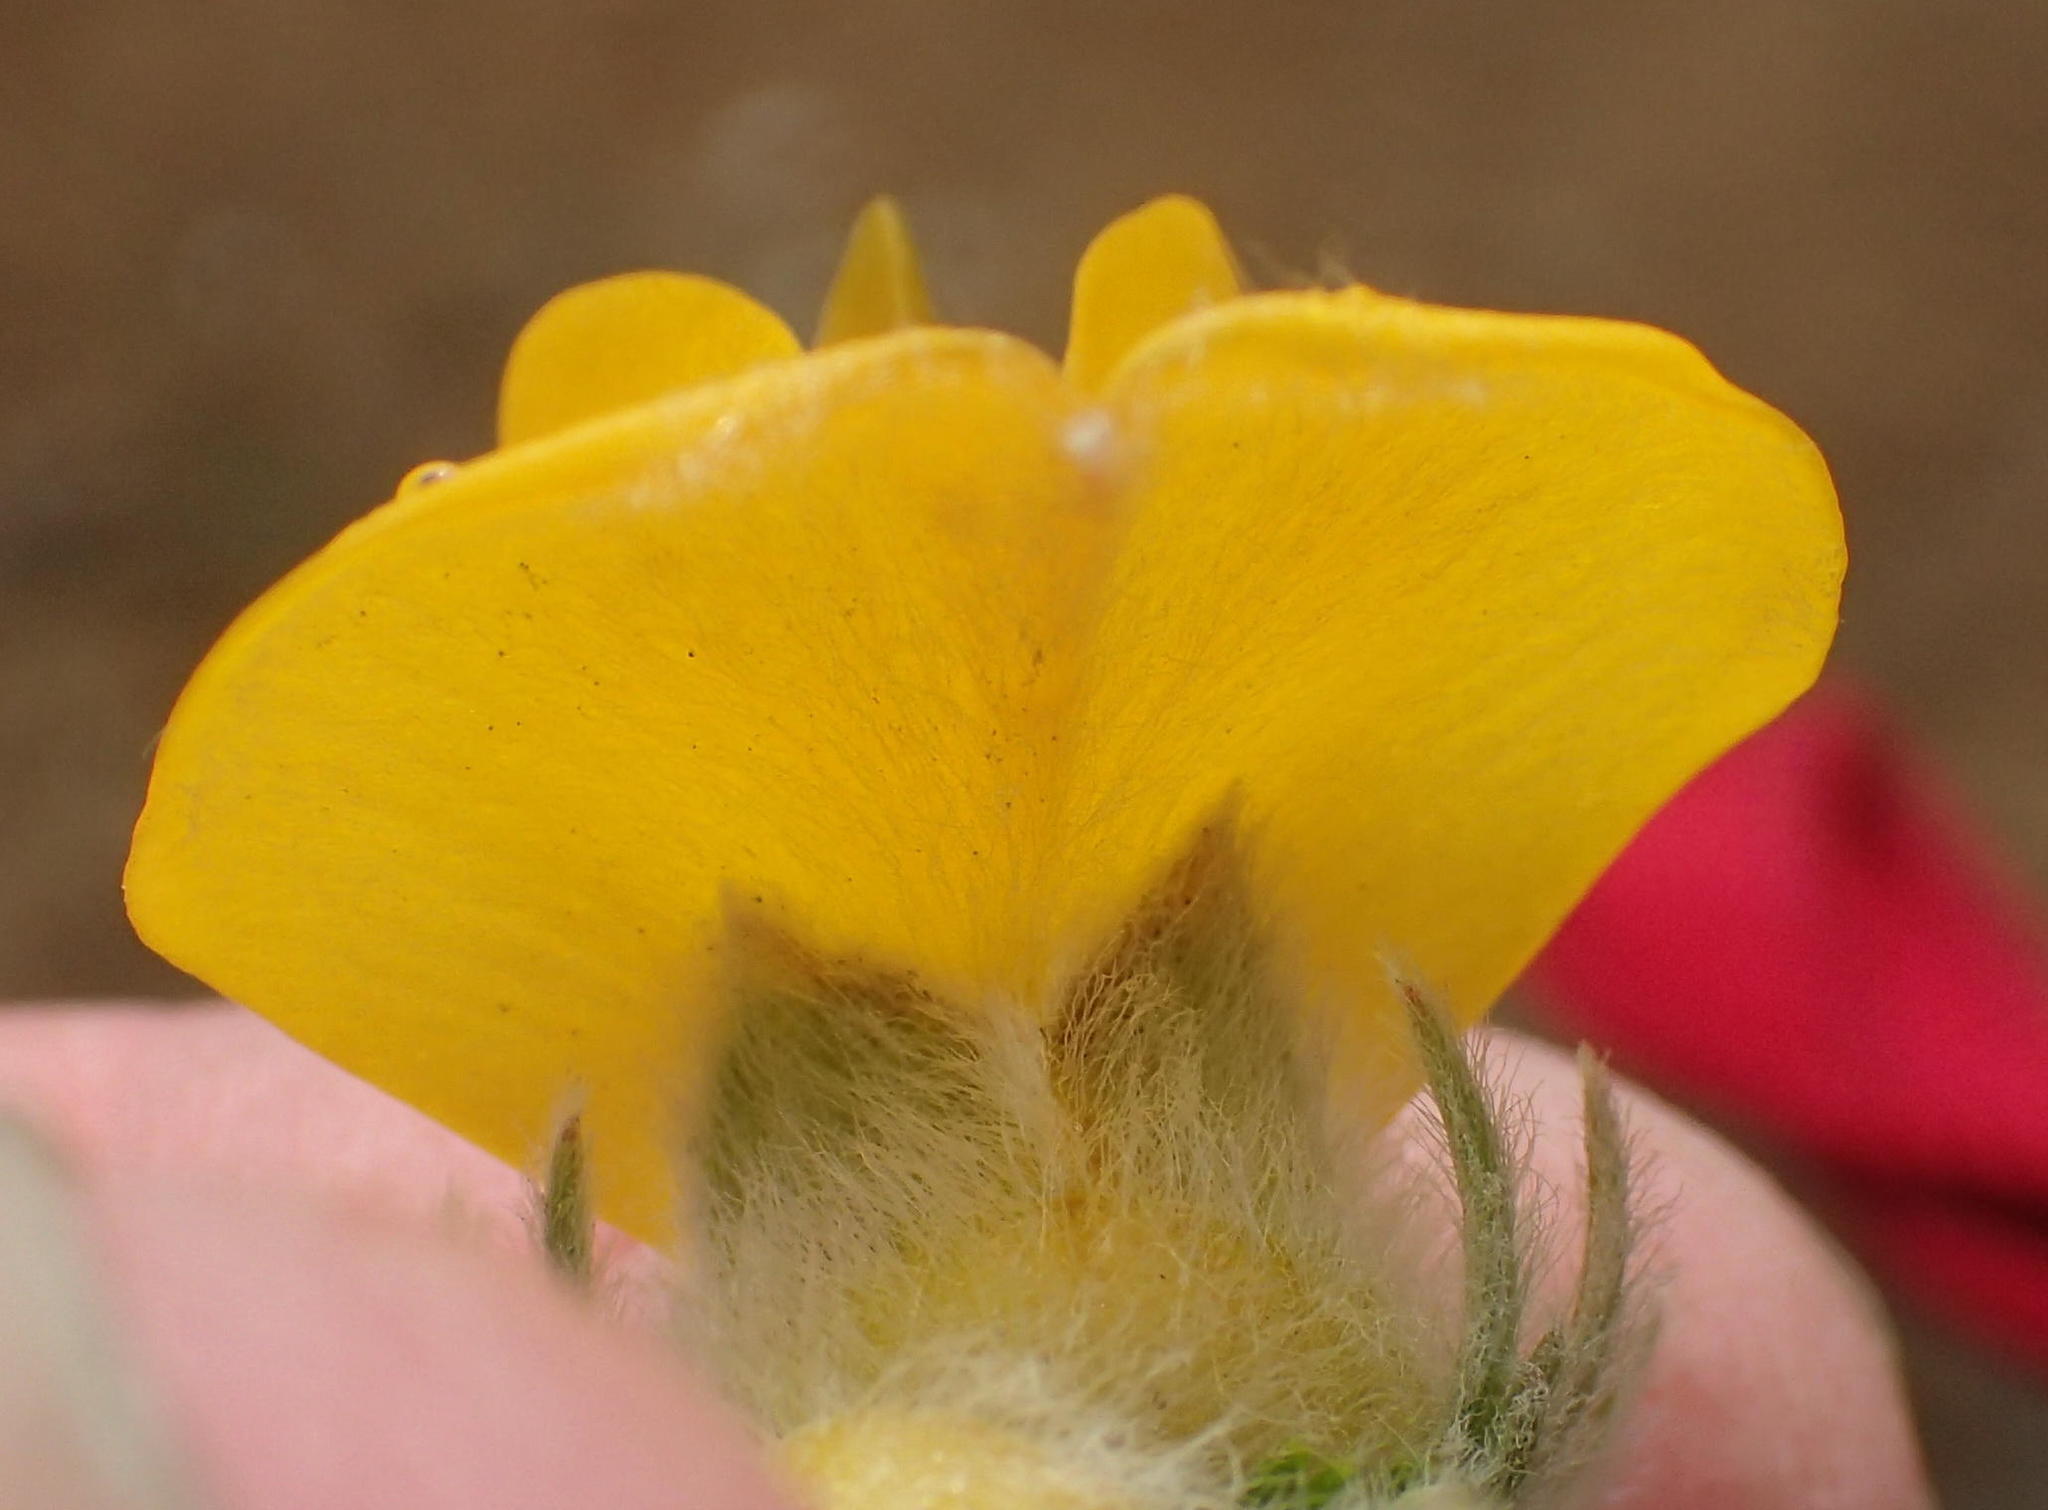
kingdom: Plantae
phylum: Tracheophyta
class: Magnoliopsida
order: Fabales
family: Fabaceae
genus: Aspalathus
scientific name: Aspalathus grandiflora
